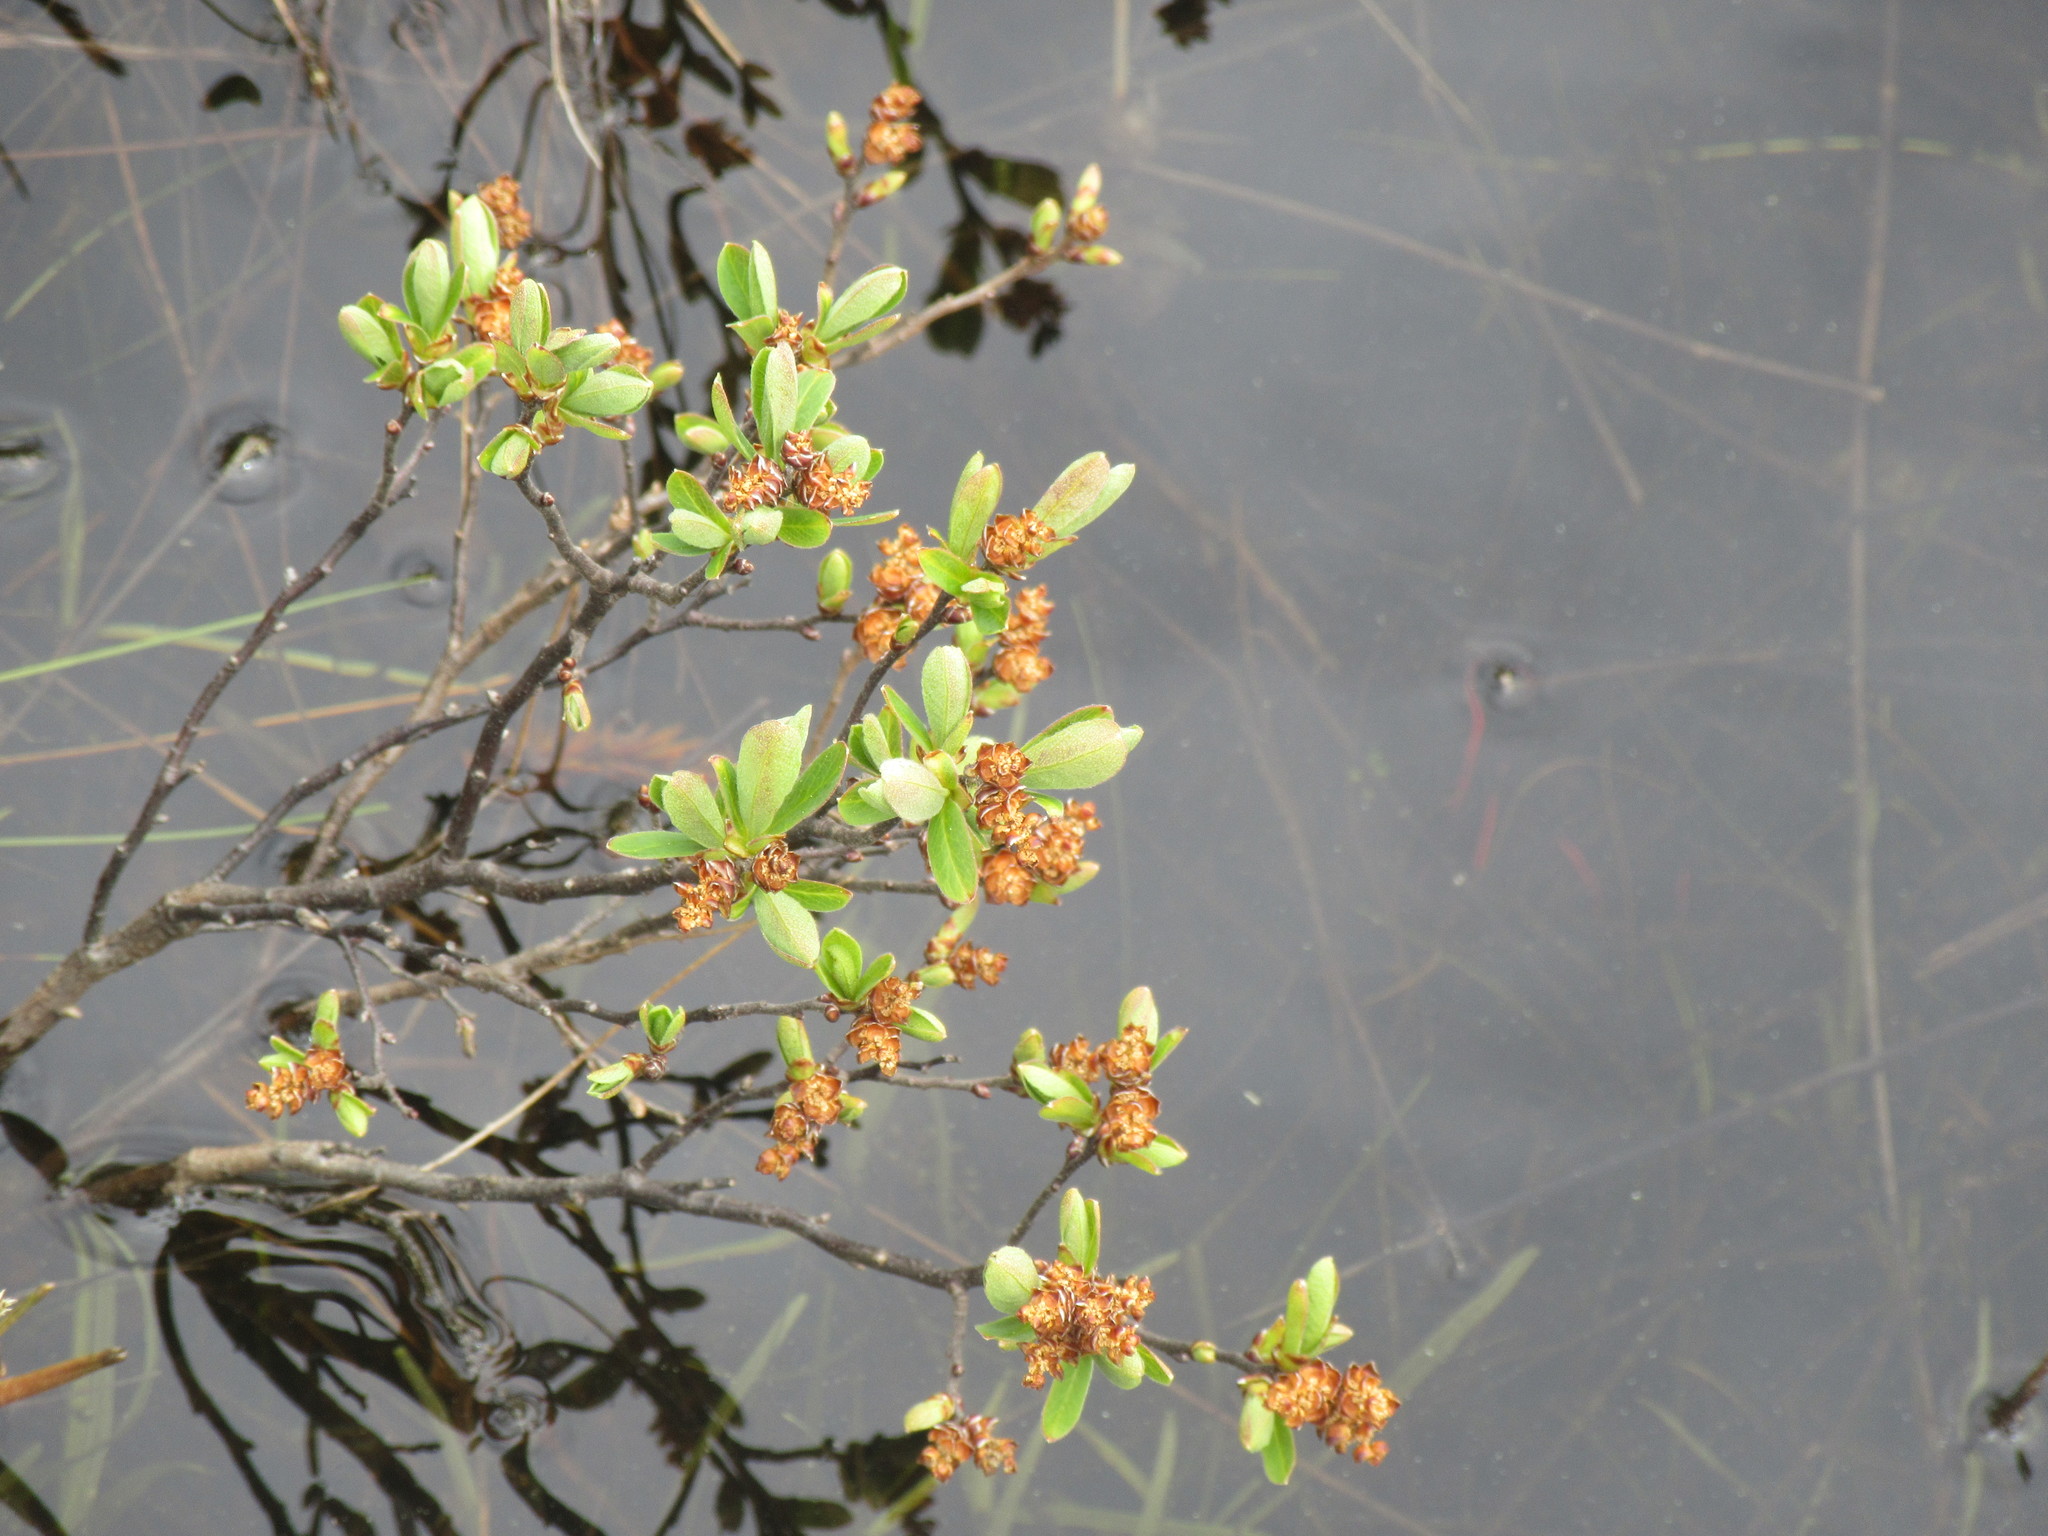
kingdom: Plantae
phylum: Tracheophyta
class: Magnoliopsida
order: Fagales
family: Myricaceae
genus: Myrica
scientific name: Myrica gale
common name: Sweet gale
